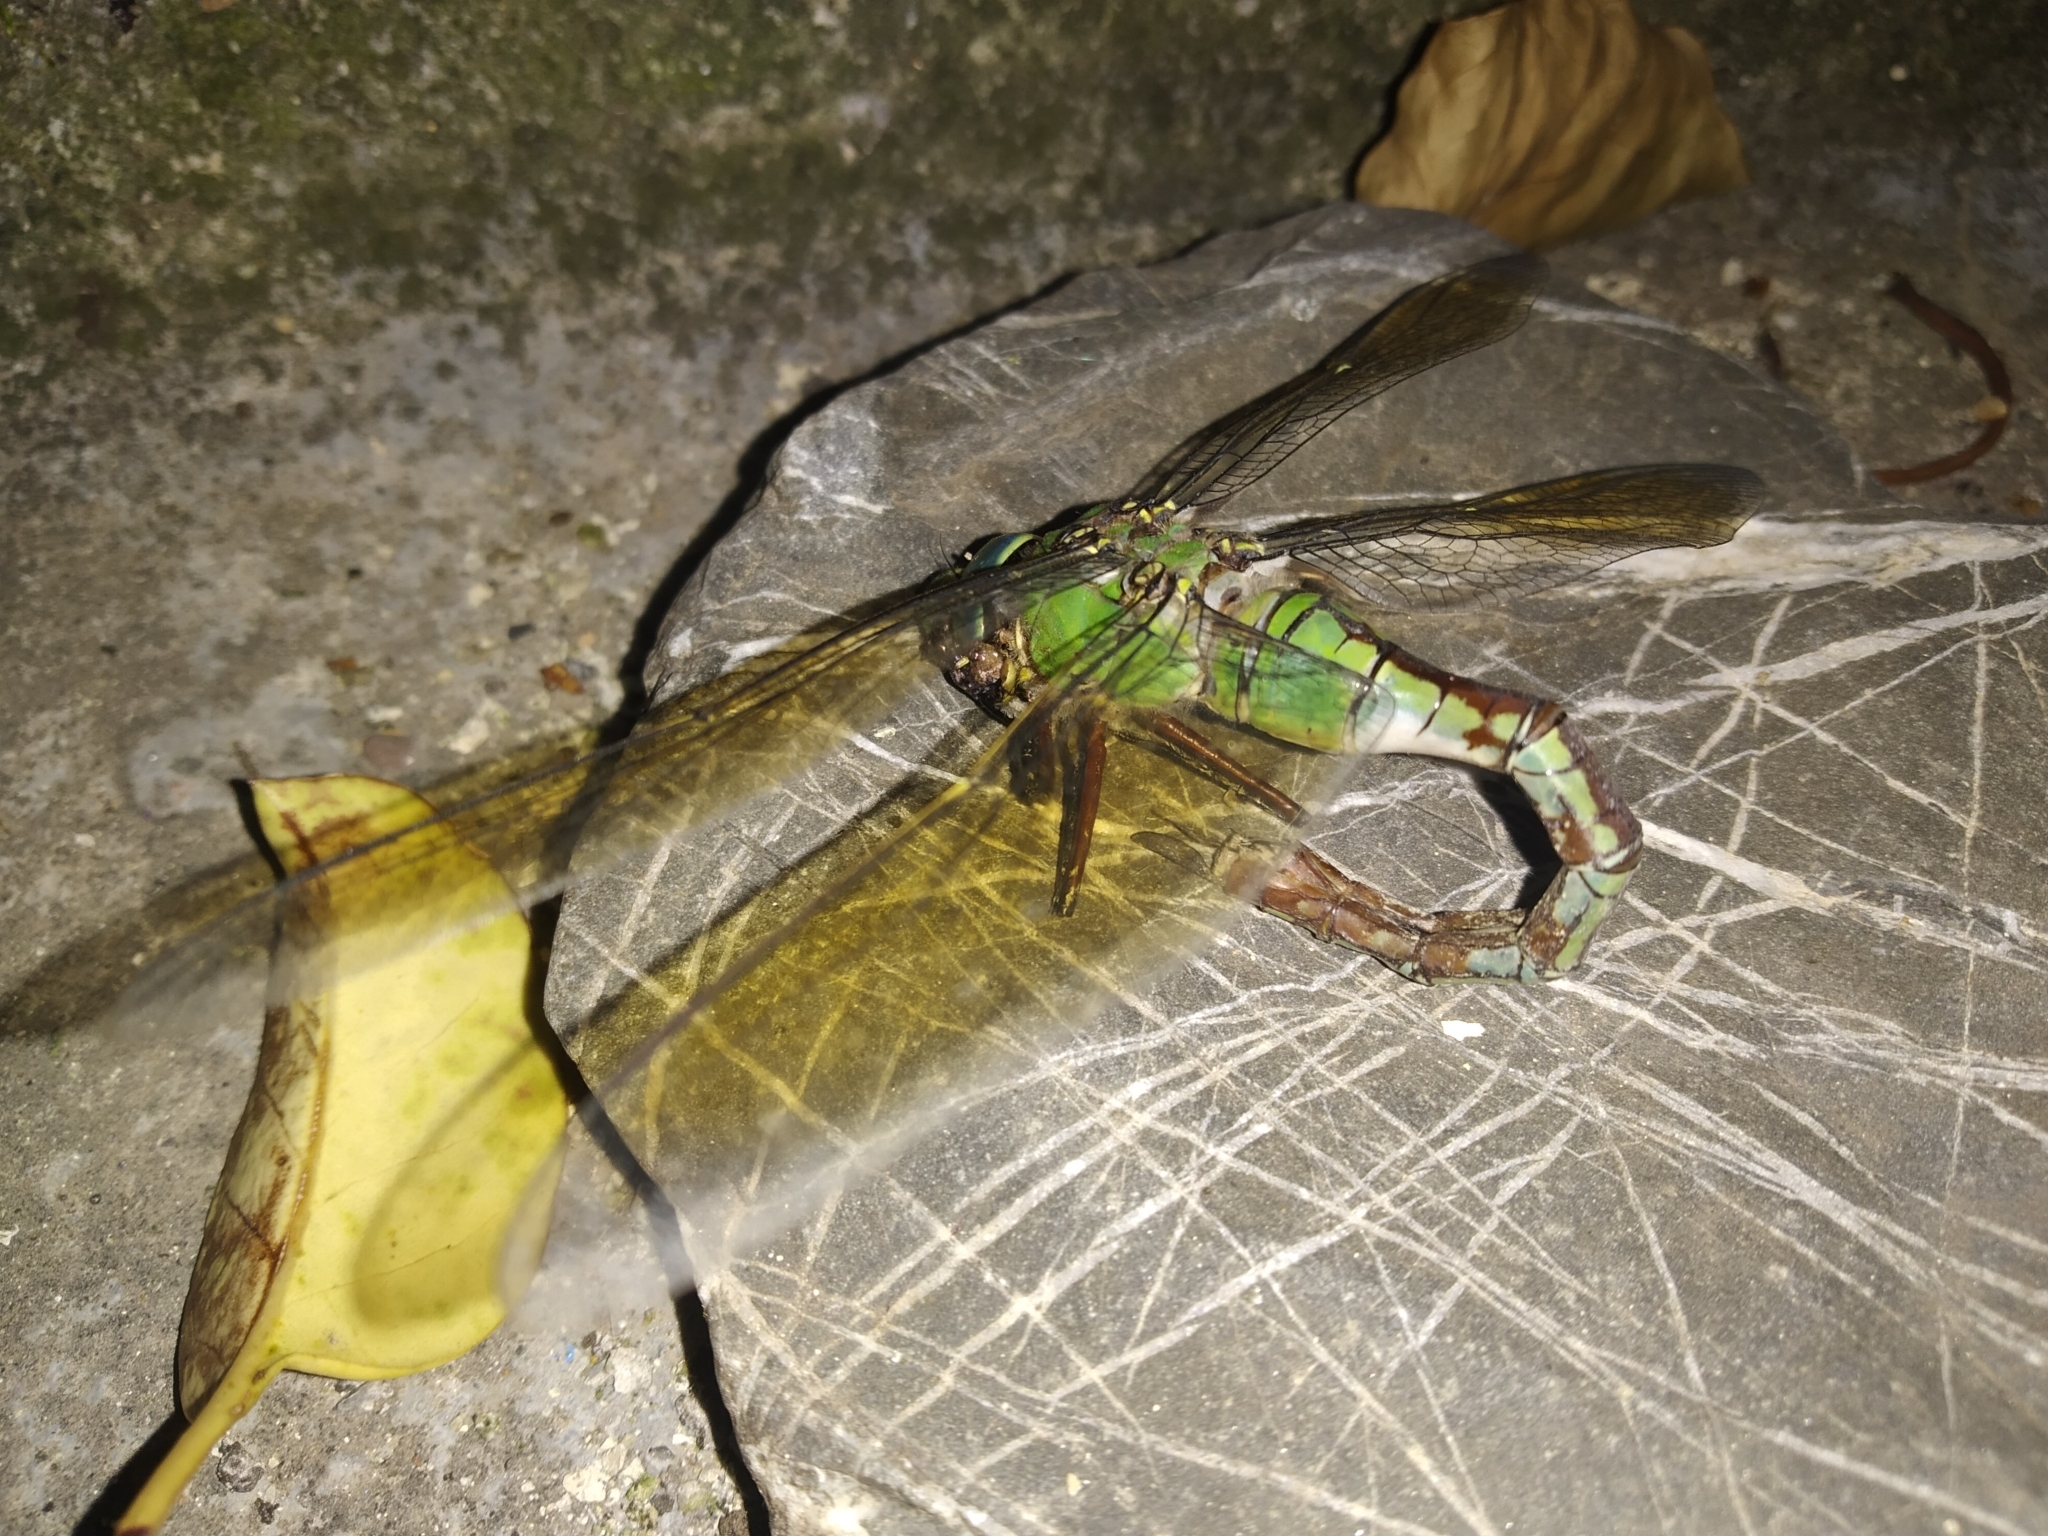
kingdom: Animalia
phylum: Arthropoda
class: Insecta
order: Odonata
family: Aeshnidae
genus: Anax
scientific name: Anax imperator
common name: Emperor dragonfly
